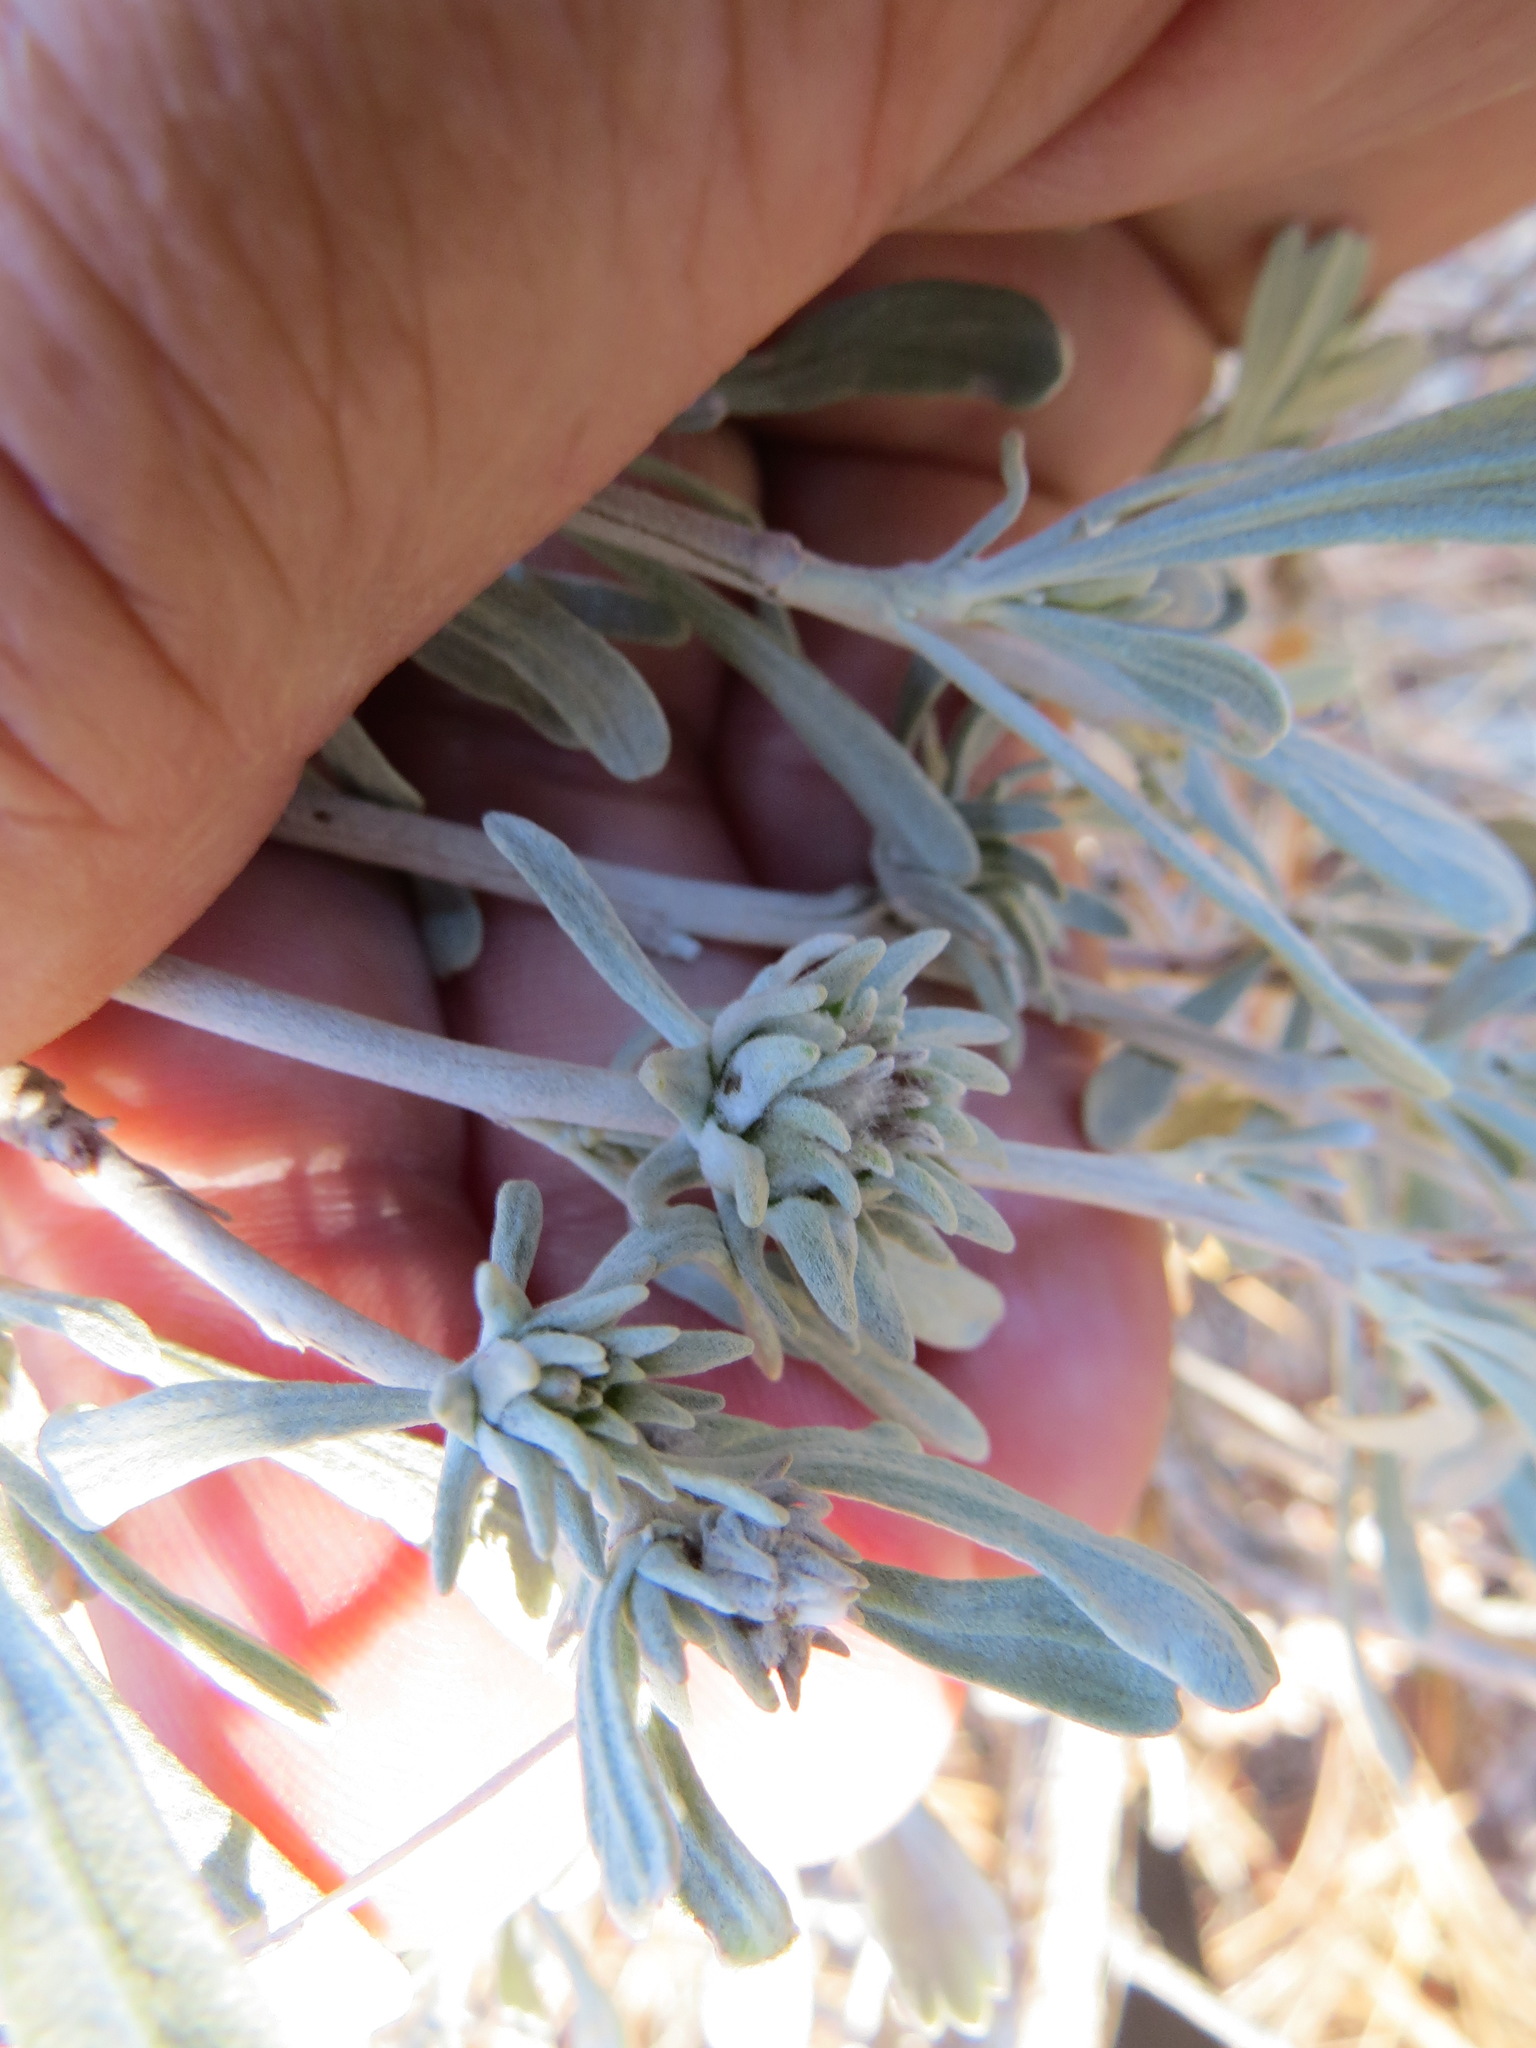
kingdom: Animalia
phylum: Arthropoda
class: Insecta
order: Diptera
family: Cecidomyiidae
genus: Rhopalomyia
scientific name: Rhopalomyia anthoides
